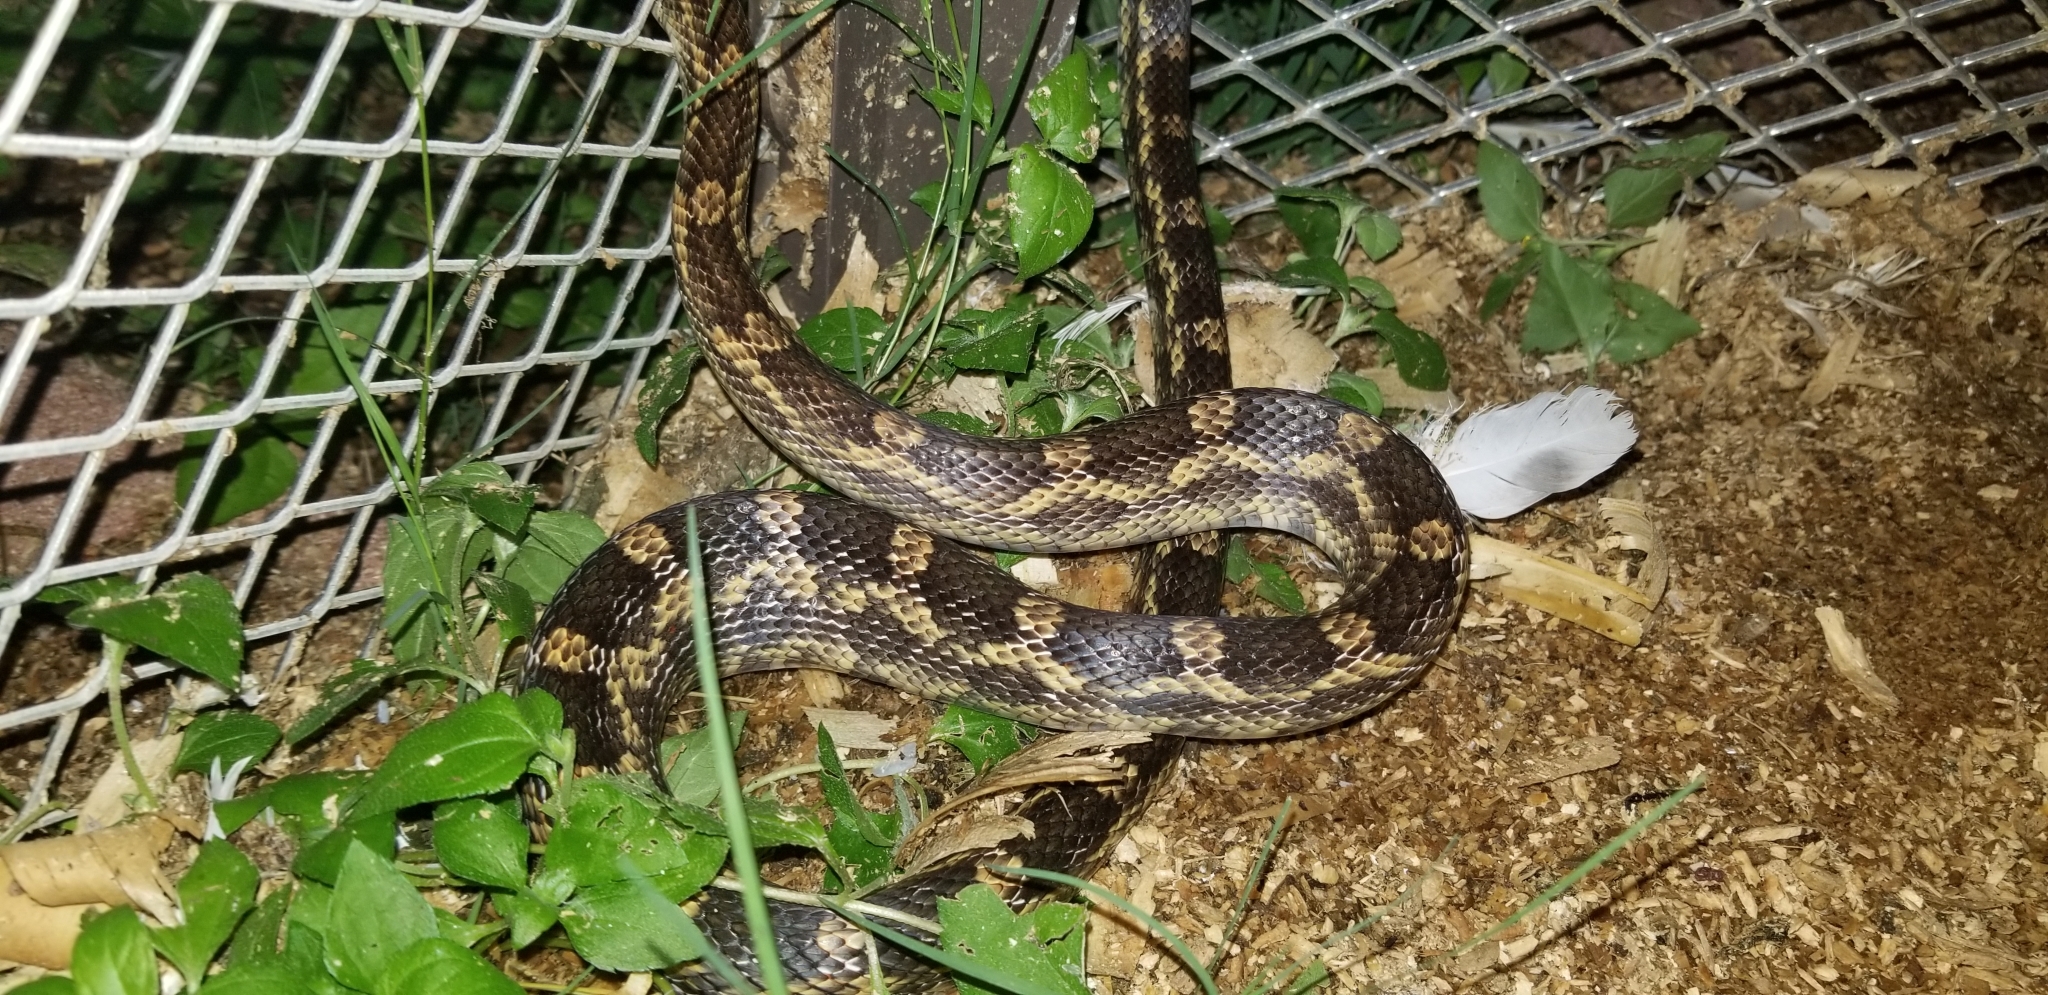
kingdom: Animalia
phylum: Chordata
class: Squamata
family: Colubridae
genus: Pantherophis
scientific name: Pantherophis obsoletus
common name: Black rat snake
